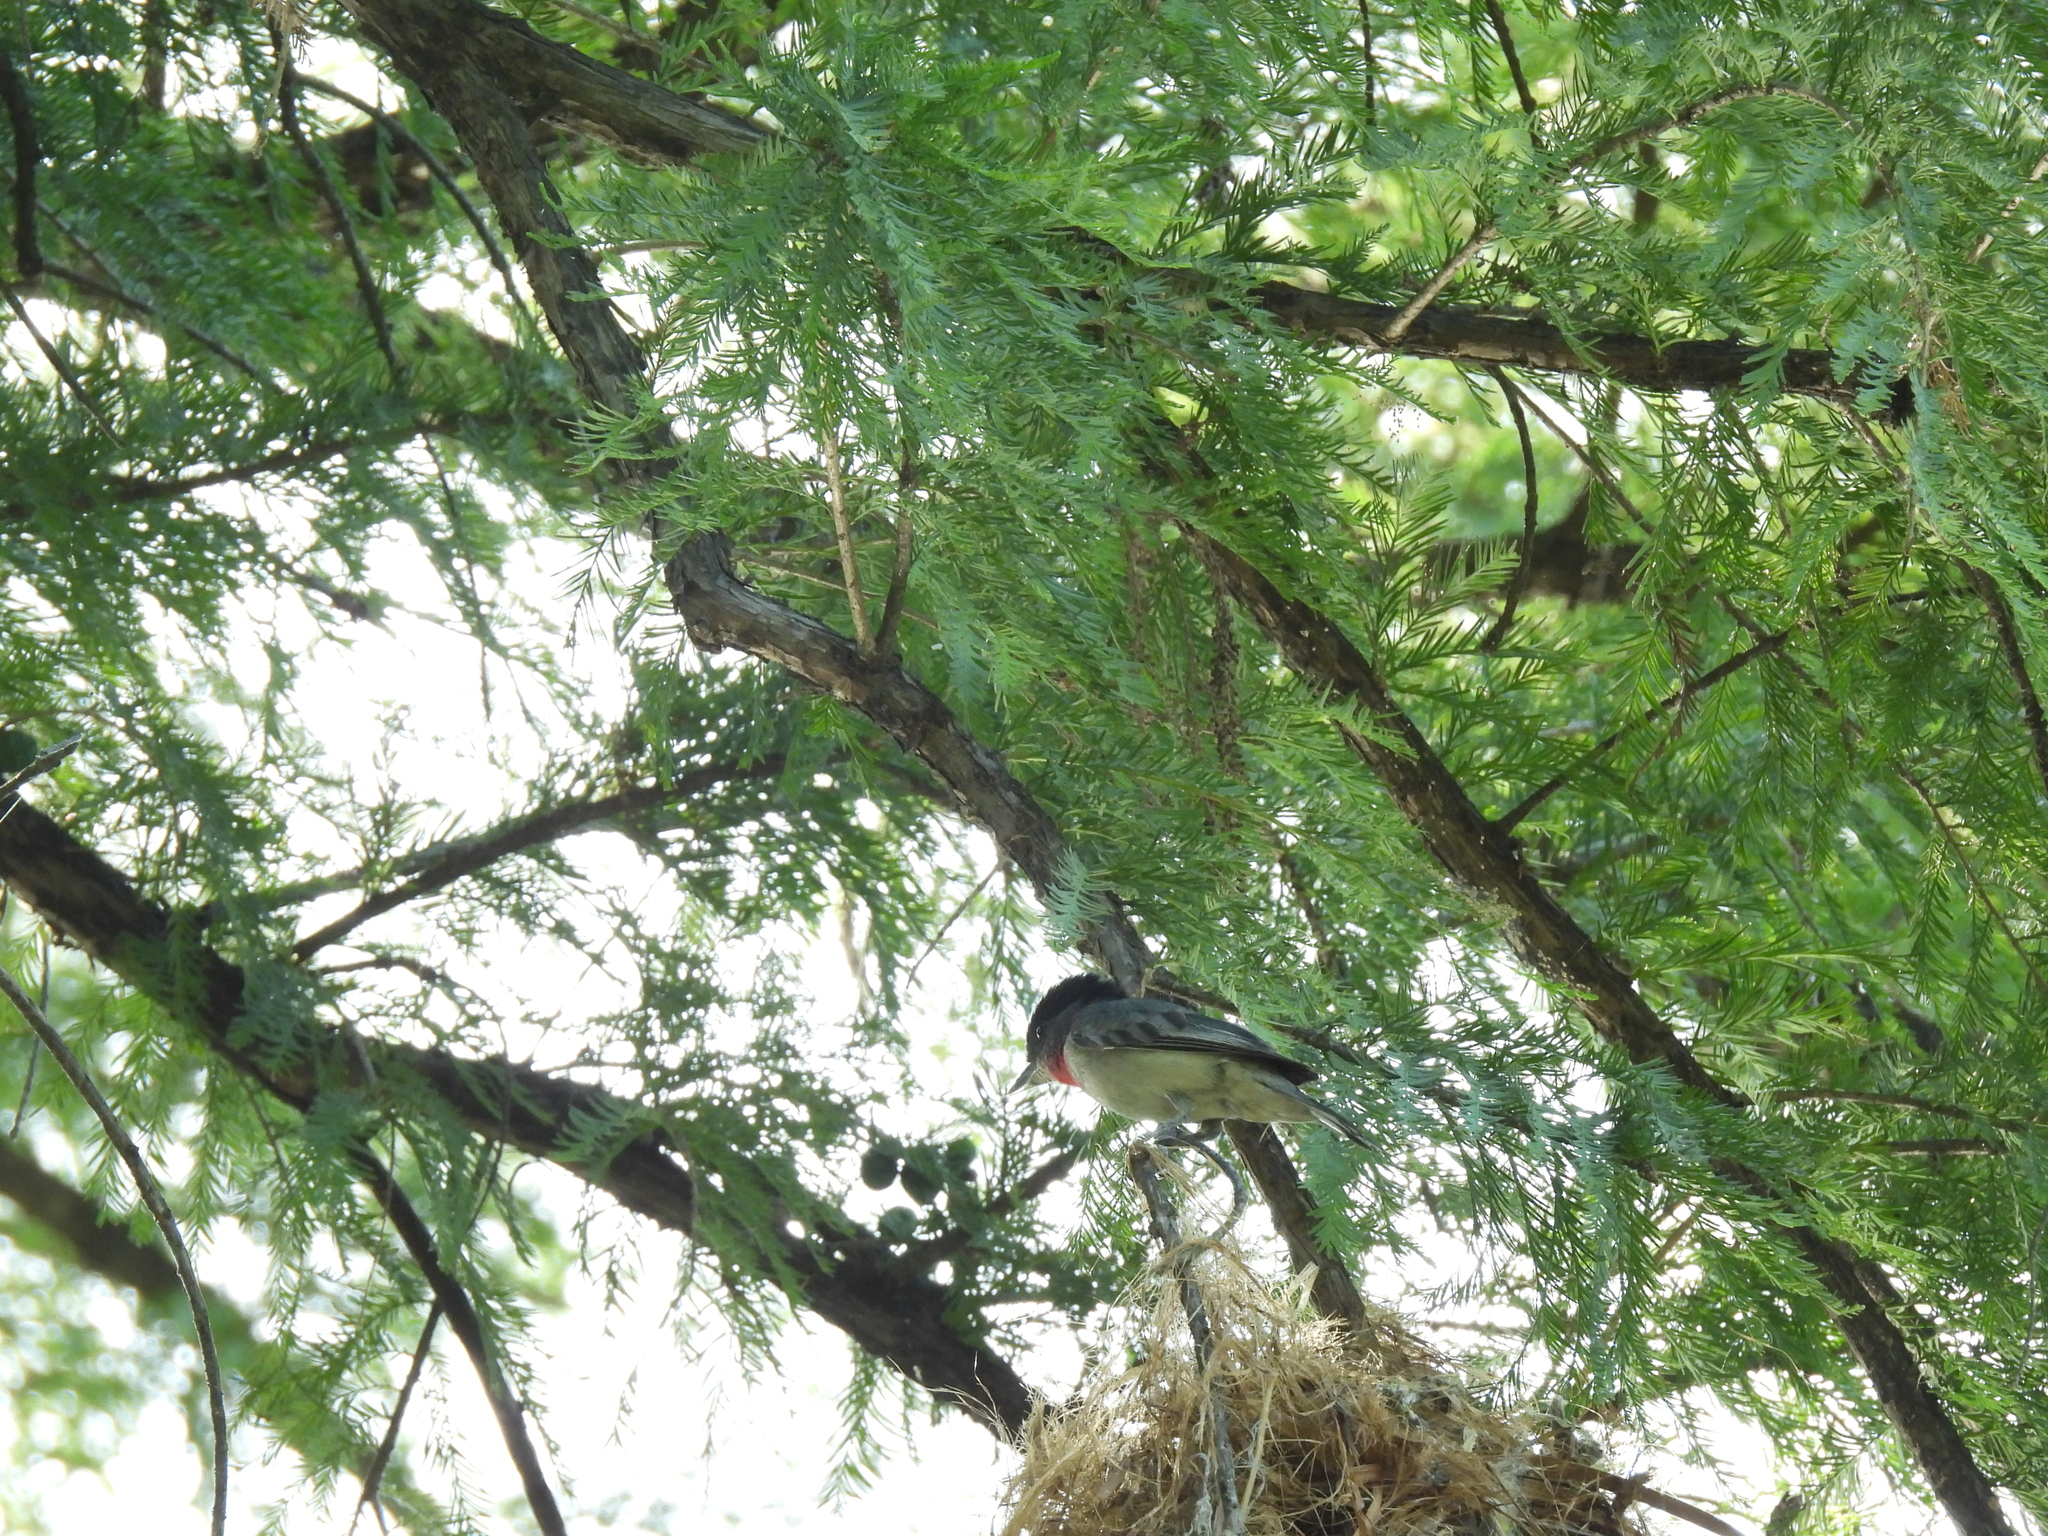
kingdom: Animalia
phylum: Chordata
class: Aves
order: Passeriformes
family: Cotingidae
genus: Pachyramphus
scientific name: Pachyramphus aglaiae
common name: Rose-throated becard
